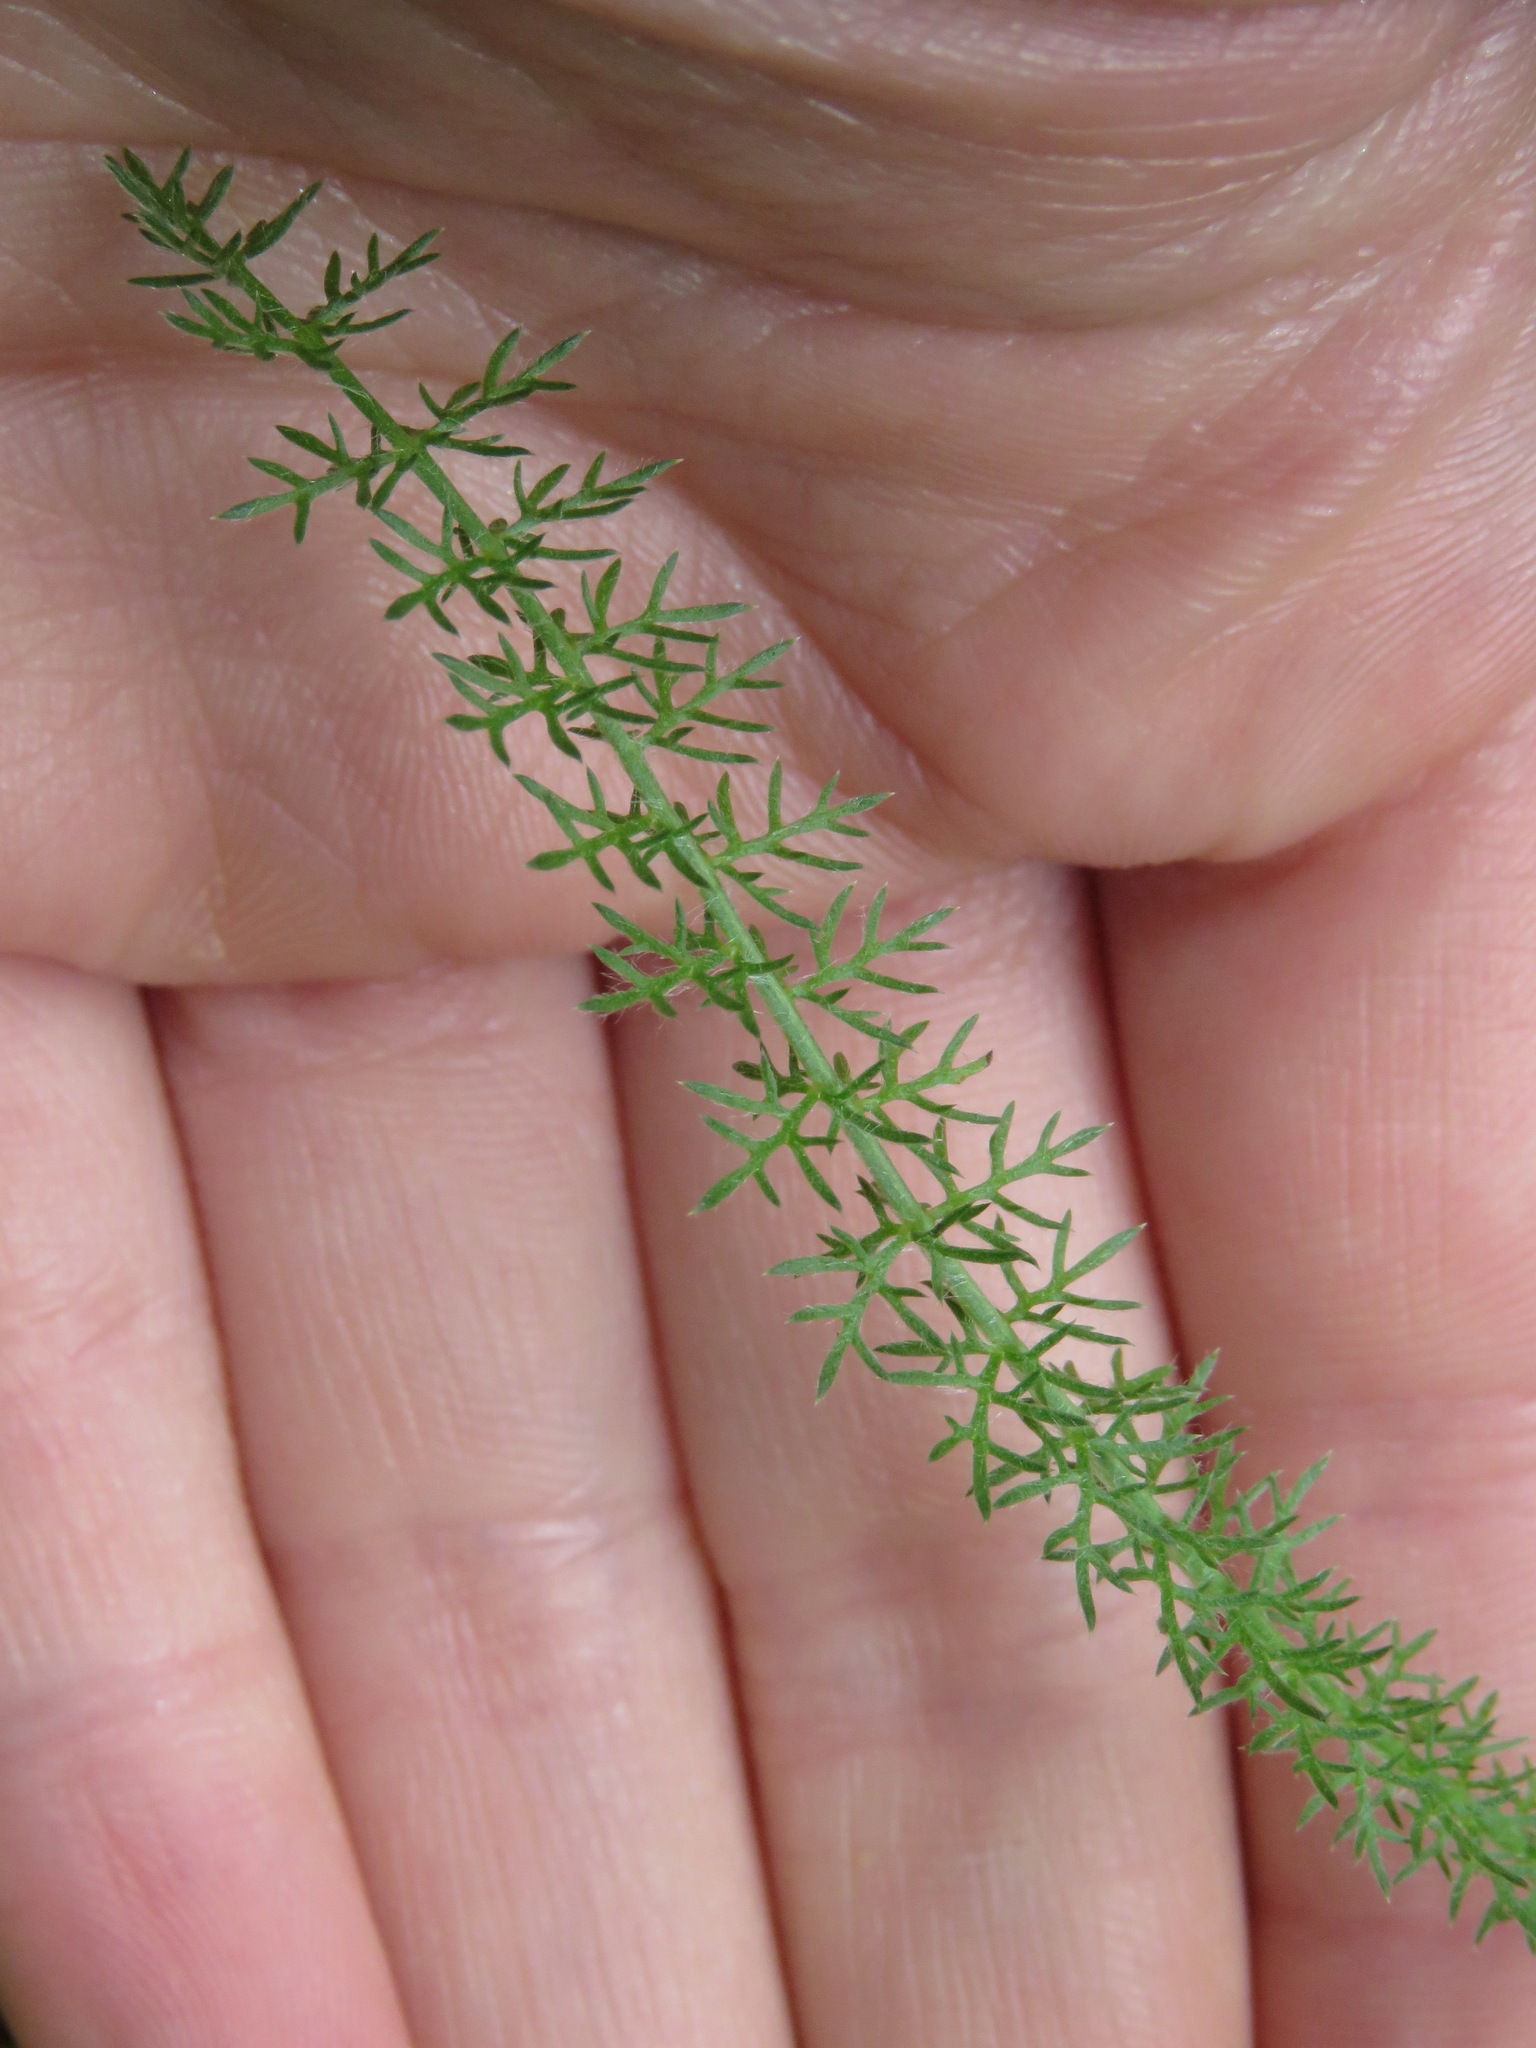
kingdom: Plantae
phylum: Tracheophyta
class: Magnoliopsida
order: Asterales
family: Asteraceae
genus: Achillea
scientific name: Achillea millefolium
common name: Yarrow
